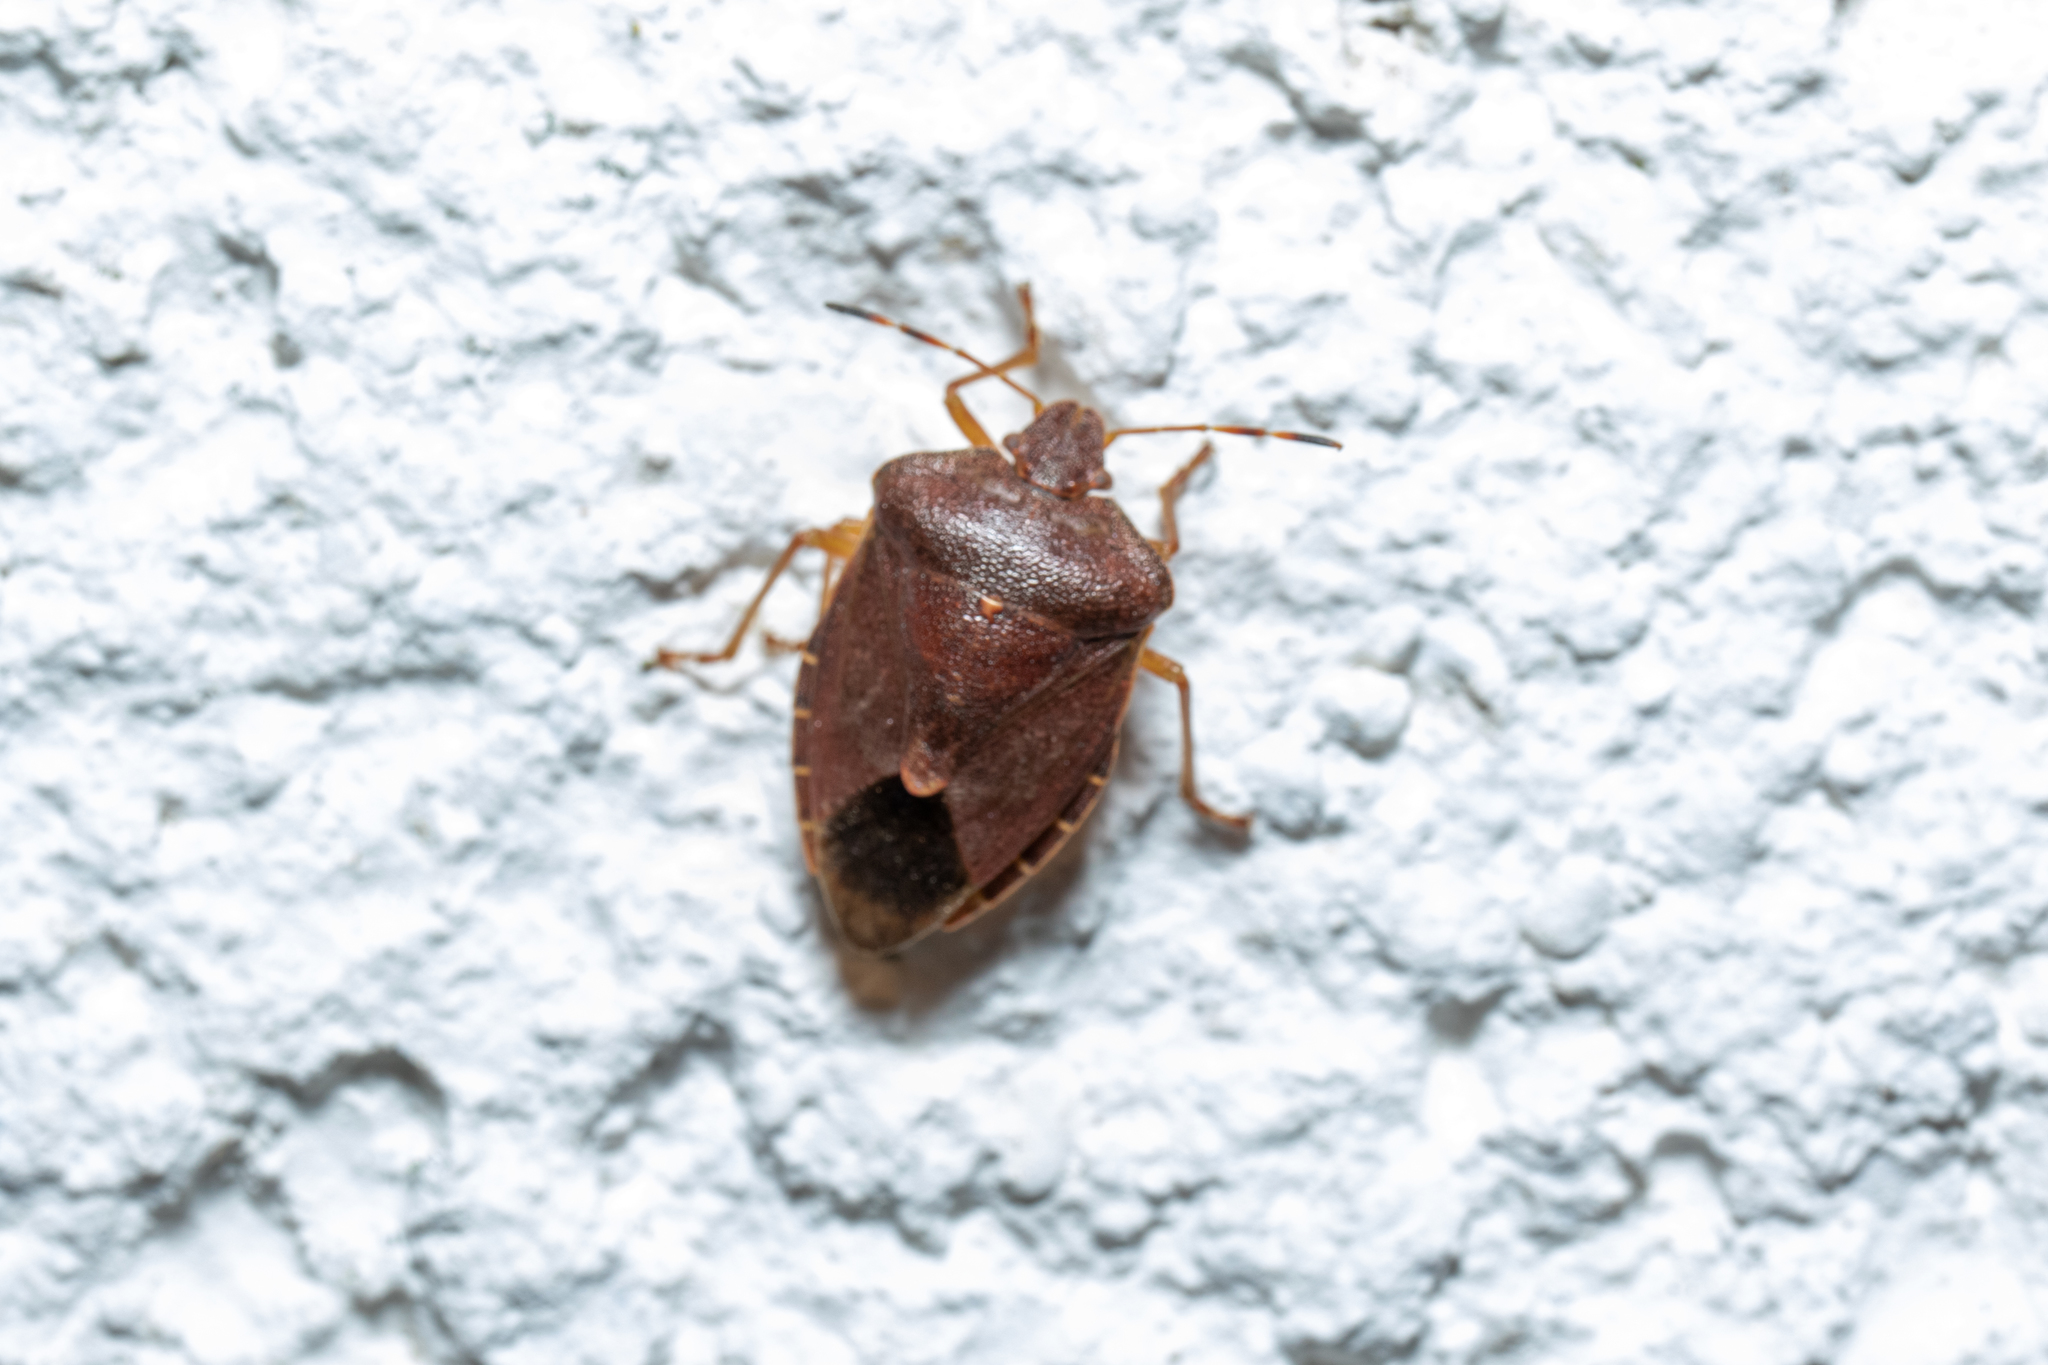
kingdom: Animalia
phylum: Arthropoda
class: Insecta
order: Hemiptera
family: Pentatomidae
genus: Palomena
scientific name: Palomena prasina
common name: Green shieldbug
